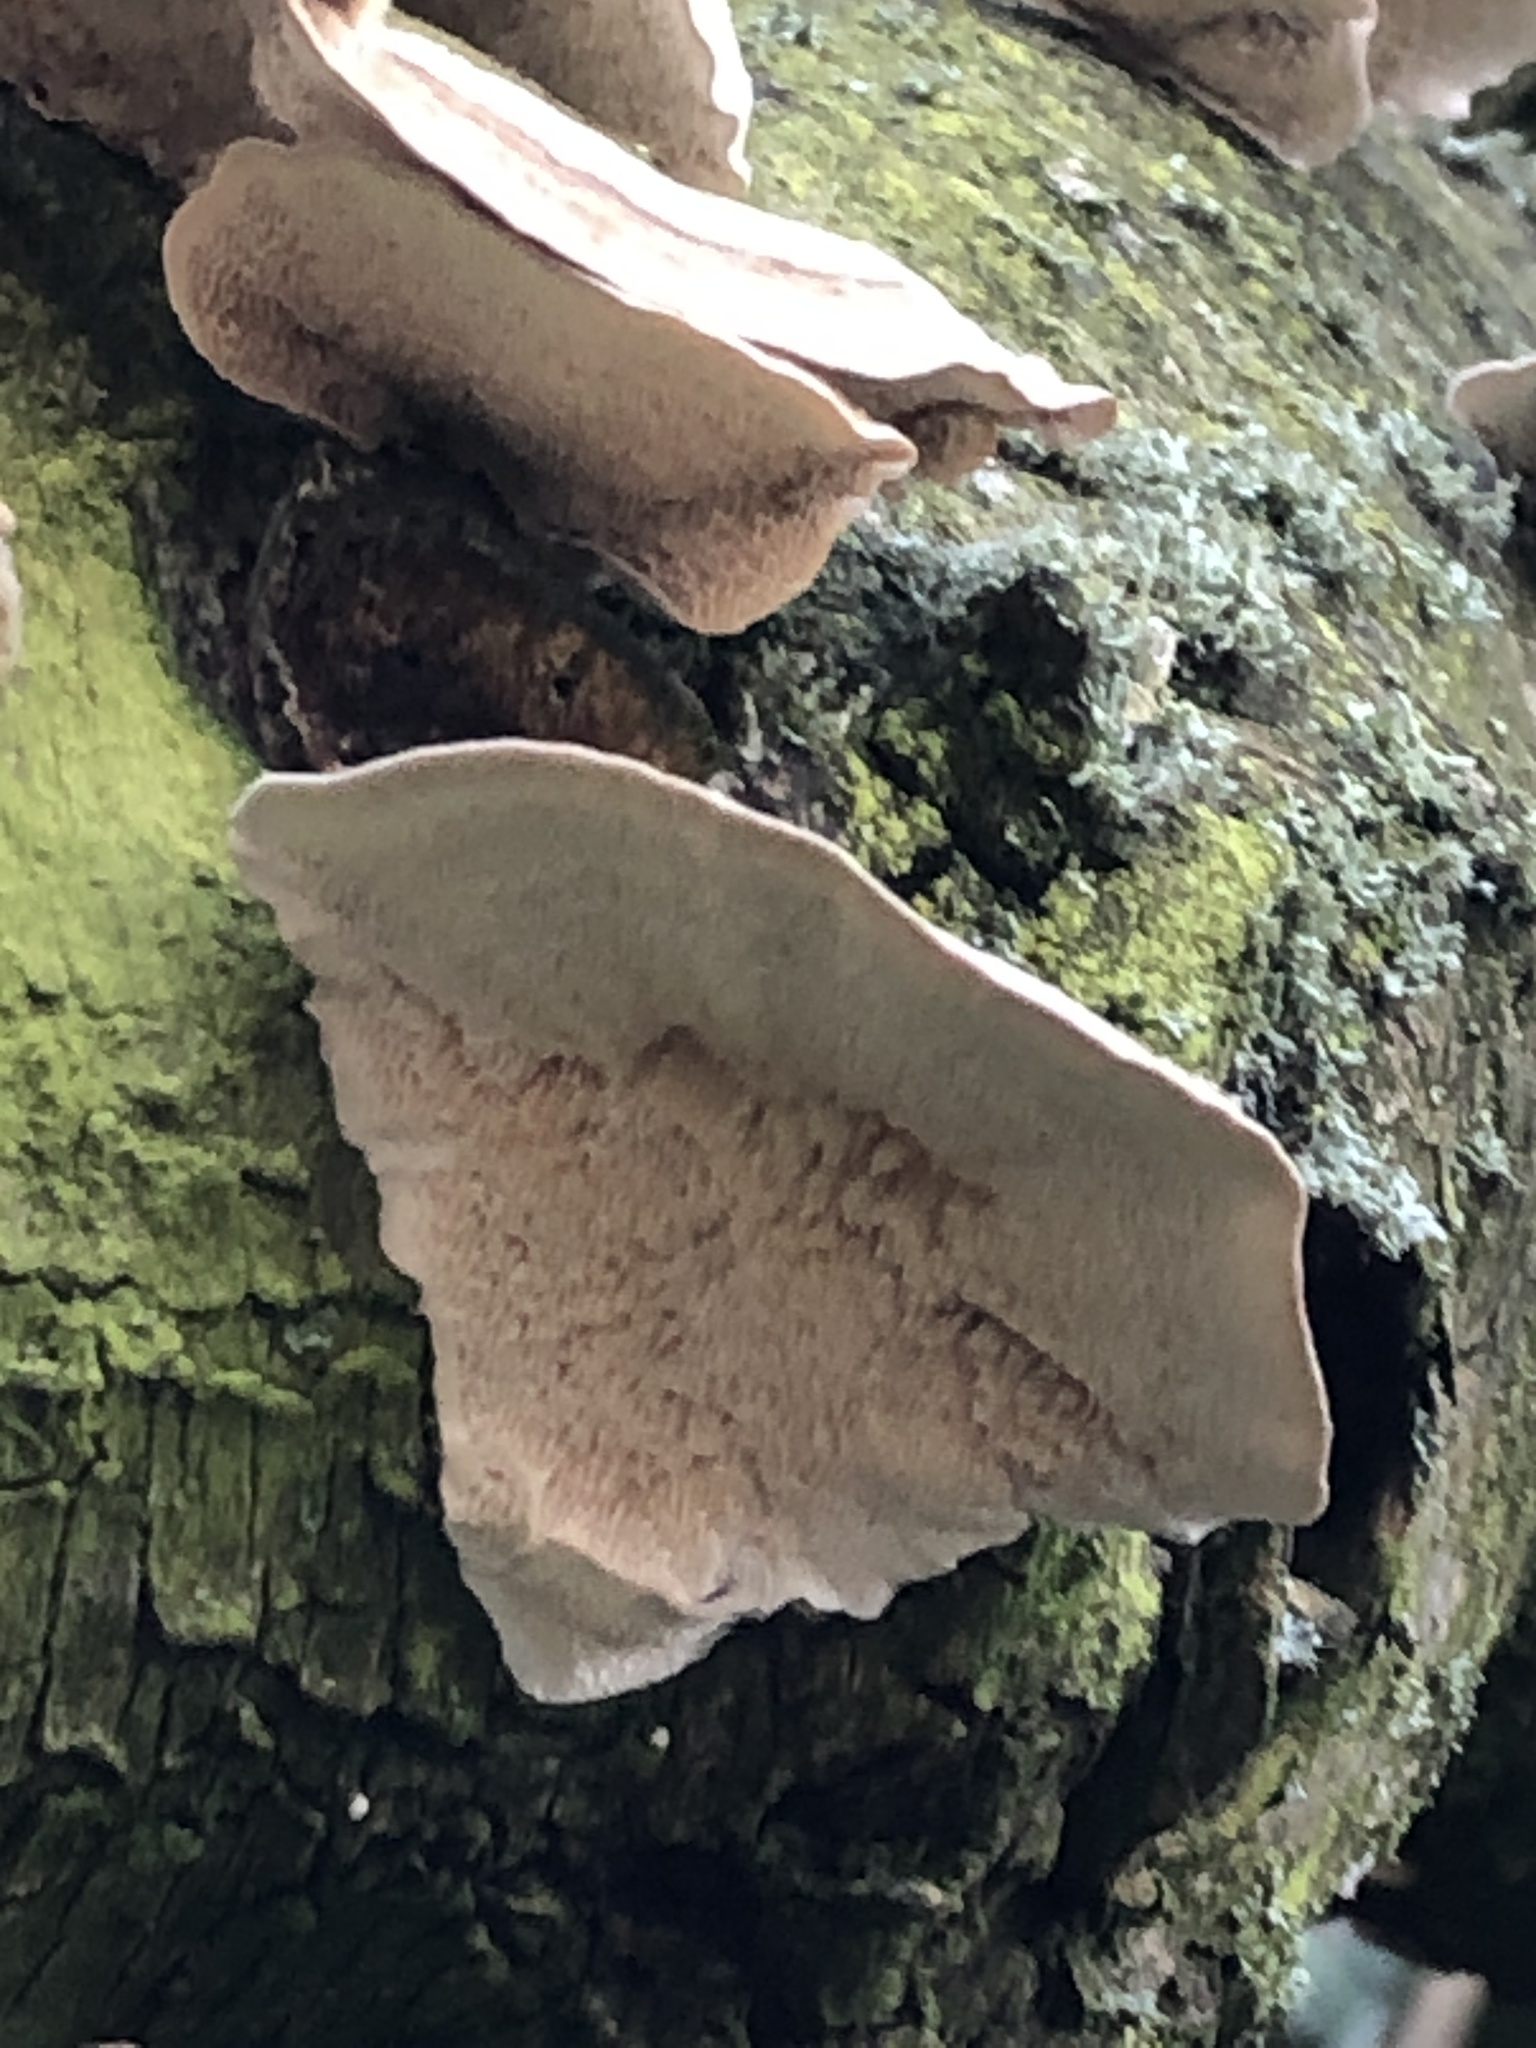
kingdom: Fungi
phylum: Basidiomycota
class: Agaricomycetes
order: Polyporales
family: Polyporaceae
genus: Trametes
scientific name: Trametes versicolor
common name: Turkeytail
